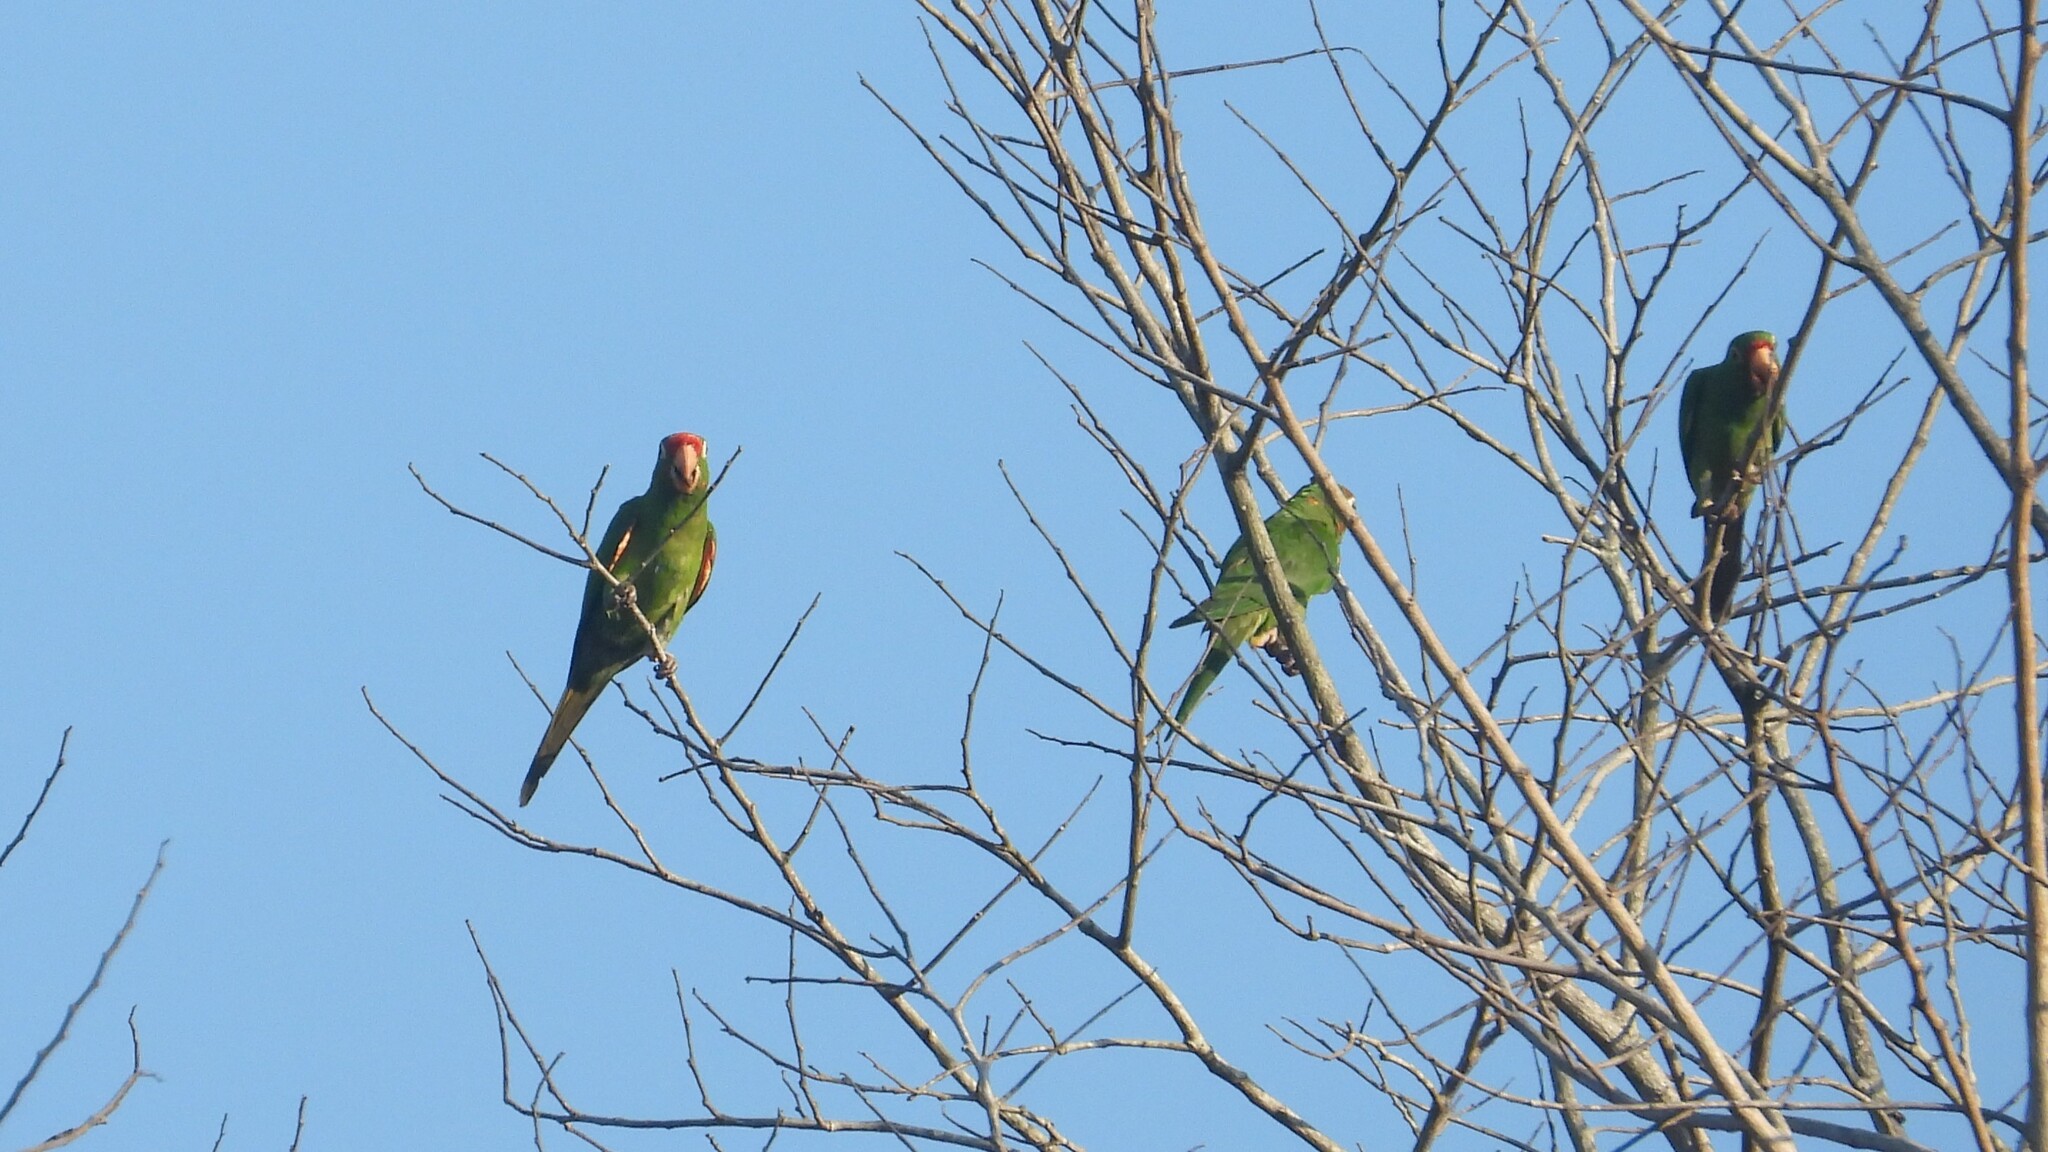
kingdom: Animalia
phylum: Chordata
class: Aves
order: Psittaciformes
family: Psittacidae
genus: Aratinga
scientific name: Aratinga finschi
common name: Crimson-fronted parakeet
